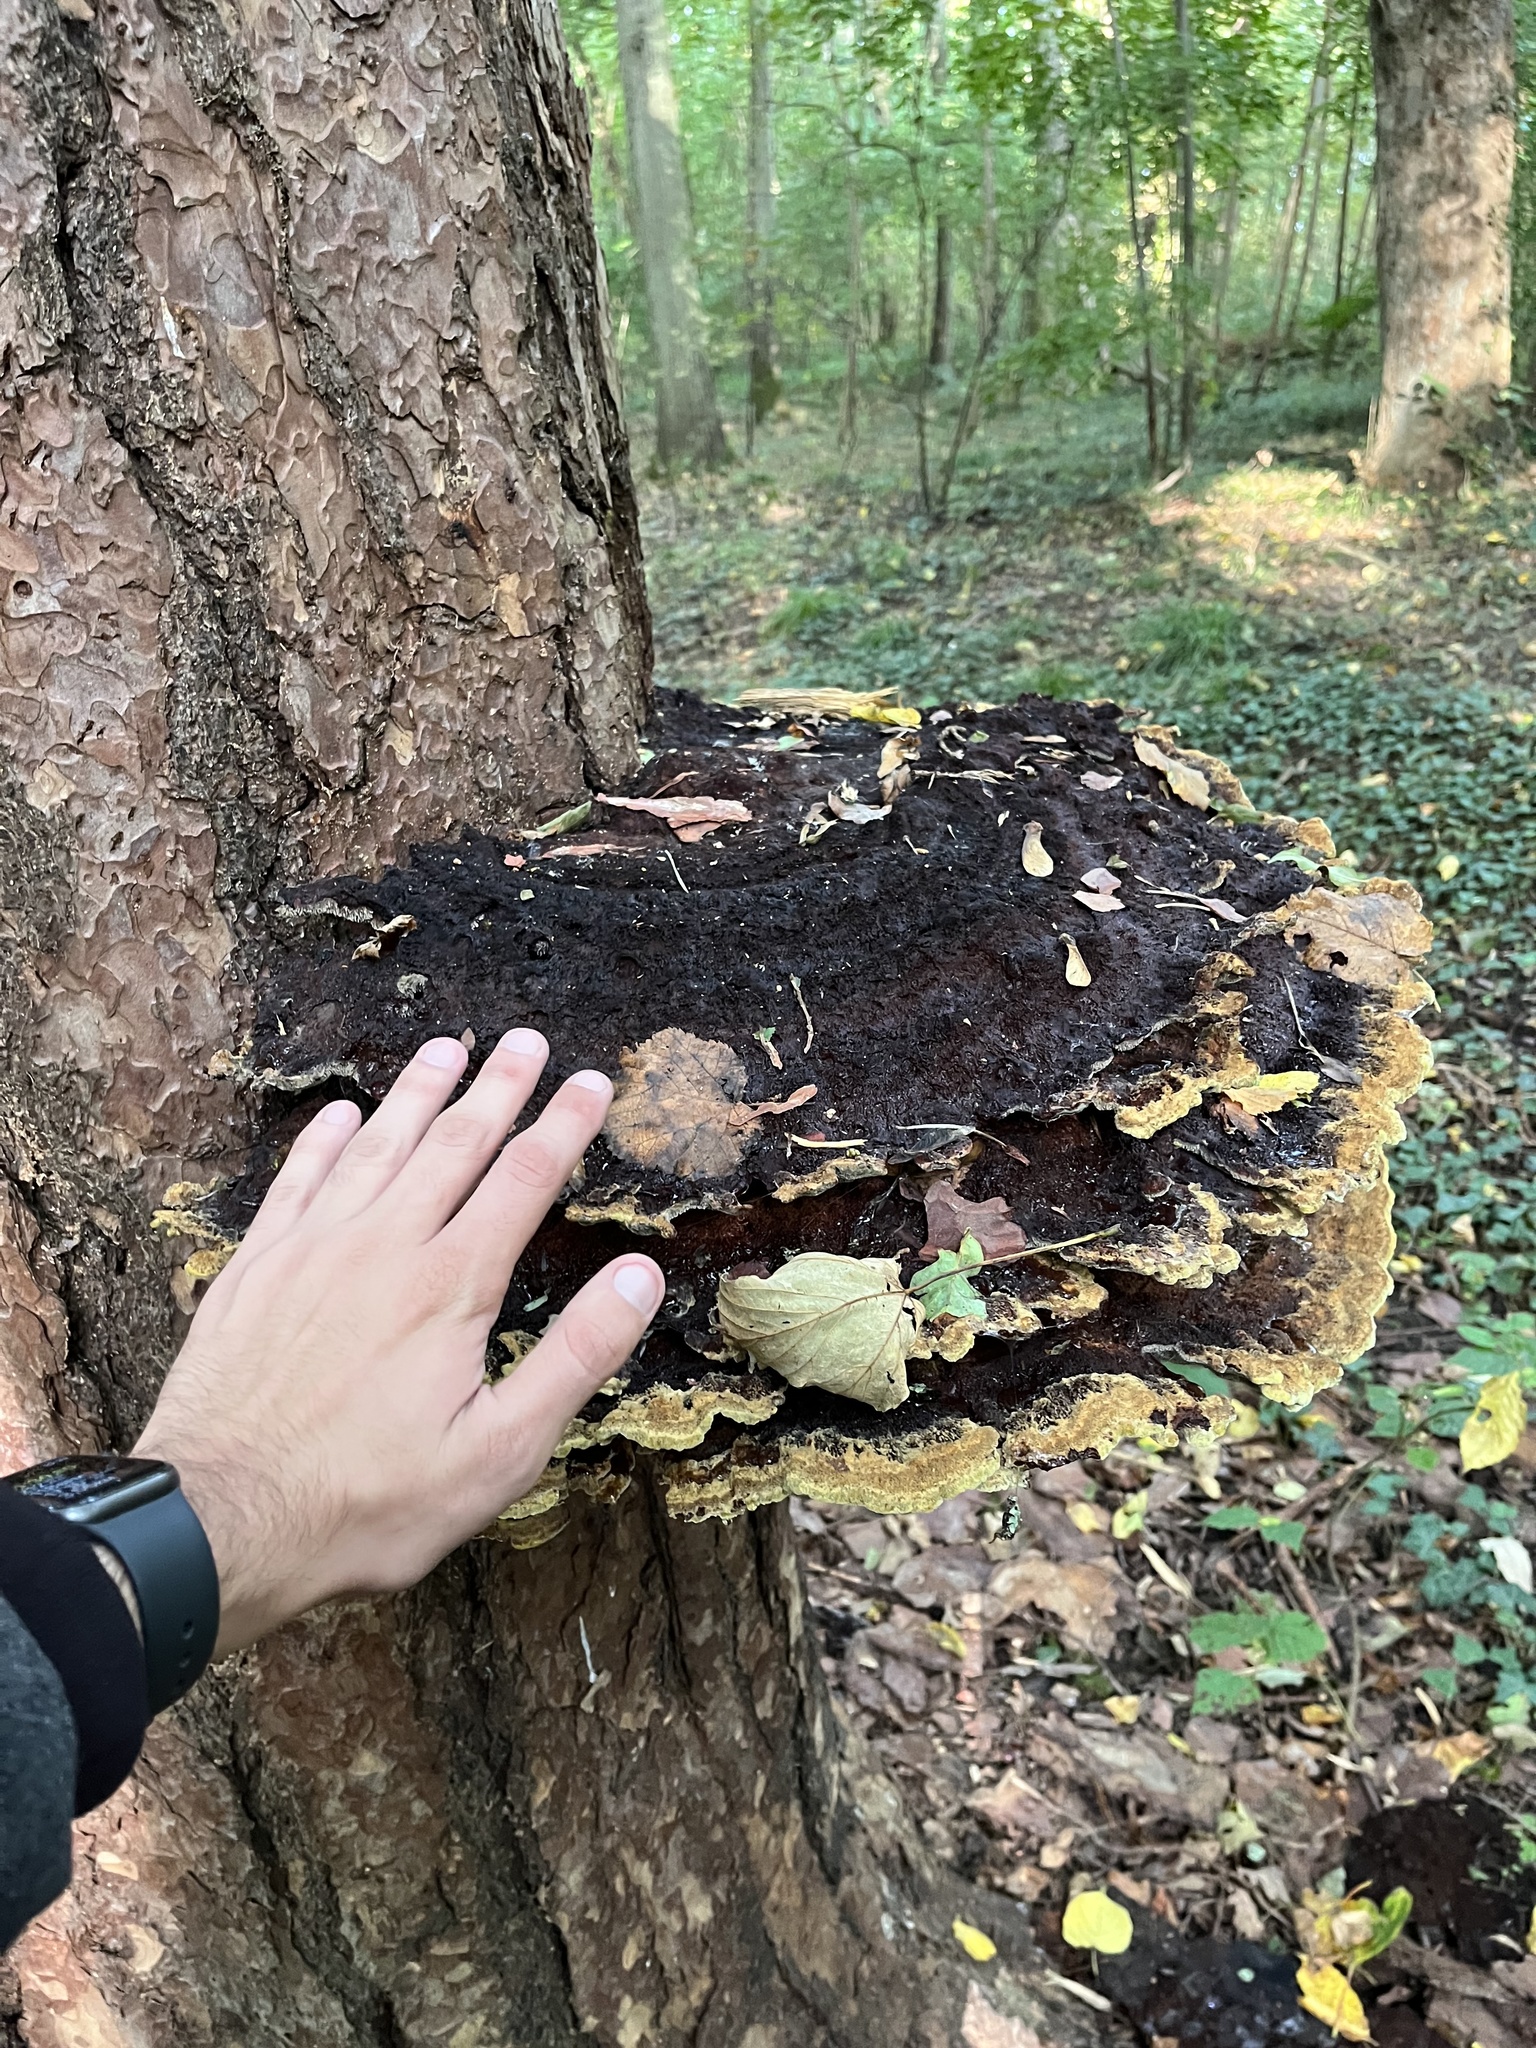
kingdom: Fungi
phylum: Basidiomycota
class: Agaricomycetes
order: Polyporales
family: Laetiporaceae
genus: Phaeolus
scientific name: Phaeolus schweinitzii
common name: Dyer's mazegill
